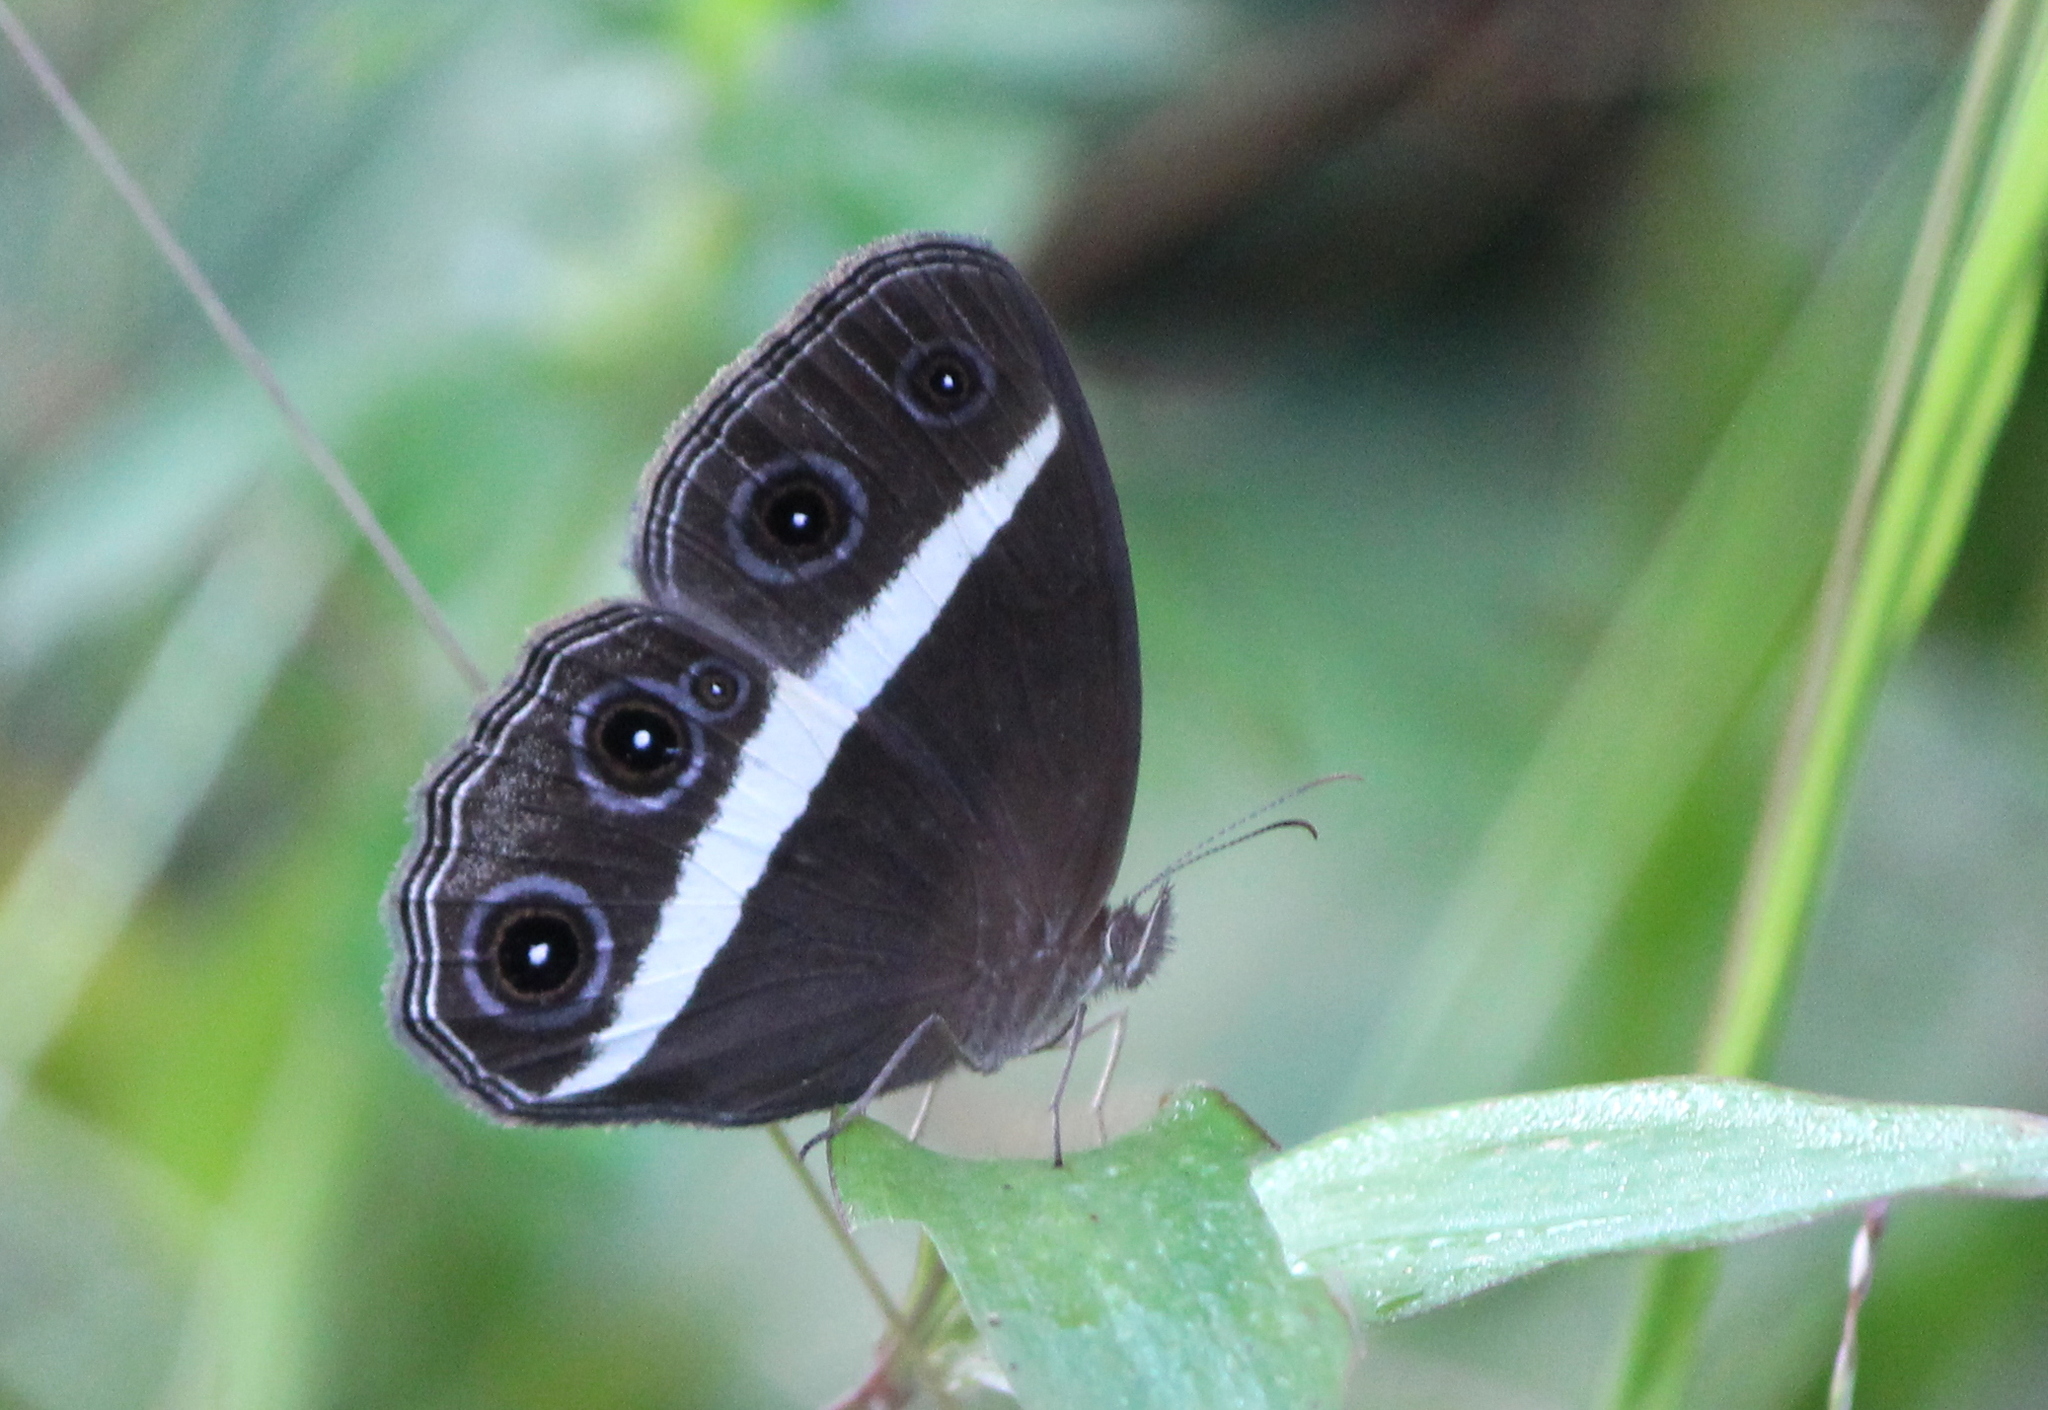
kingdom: Animalia
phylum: Arthropoda
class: Insecta
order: Lepidoptera
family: Nymphalidae
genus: Orsotriaena
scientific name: Orsotriaena medus
